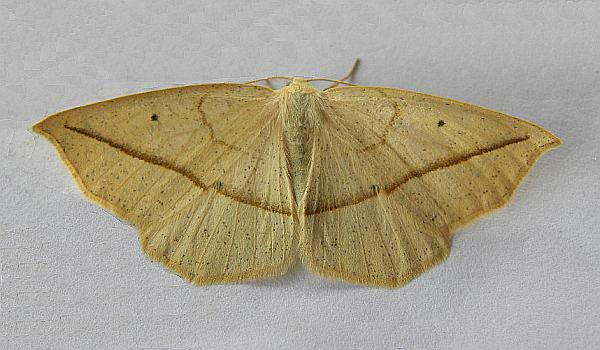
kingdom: Animalia
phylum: Arthropoda
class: Insecta
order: Lepidoptera
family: Geometridae
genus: Eusarca
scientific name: Eusarca confusaria
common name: Confused eusarca
